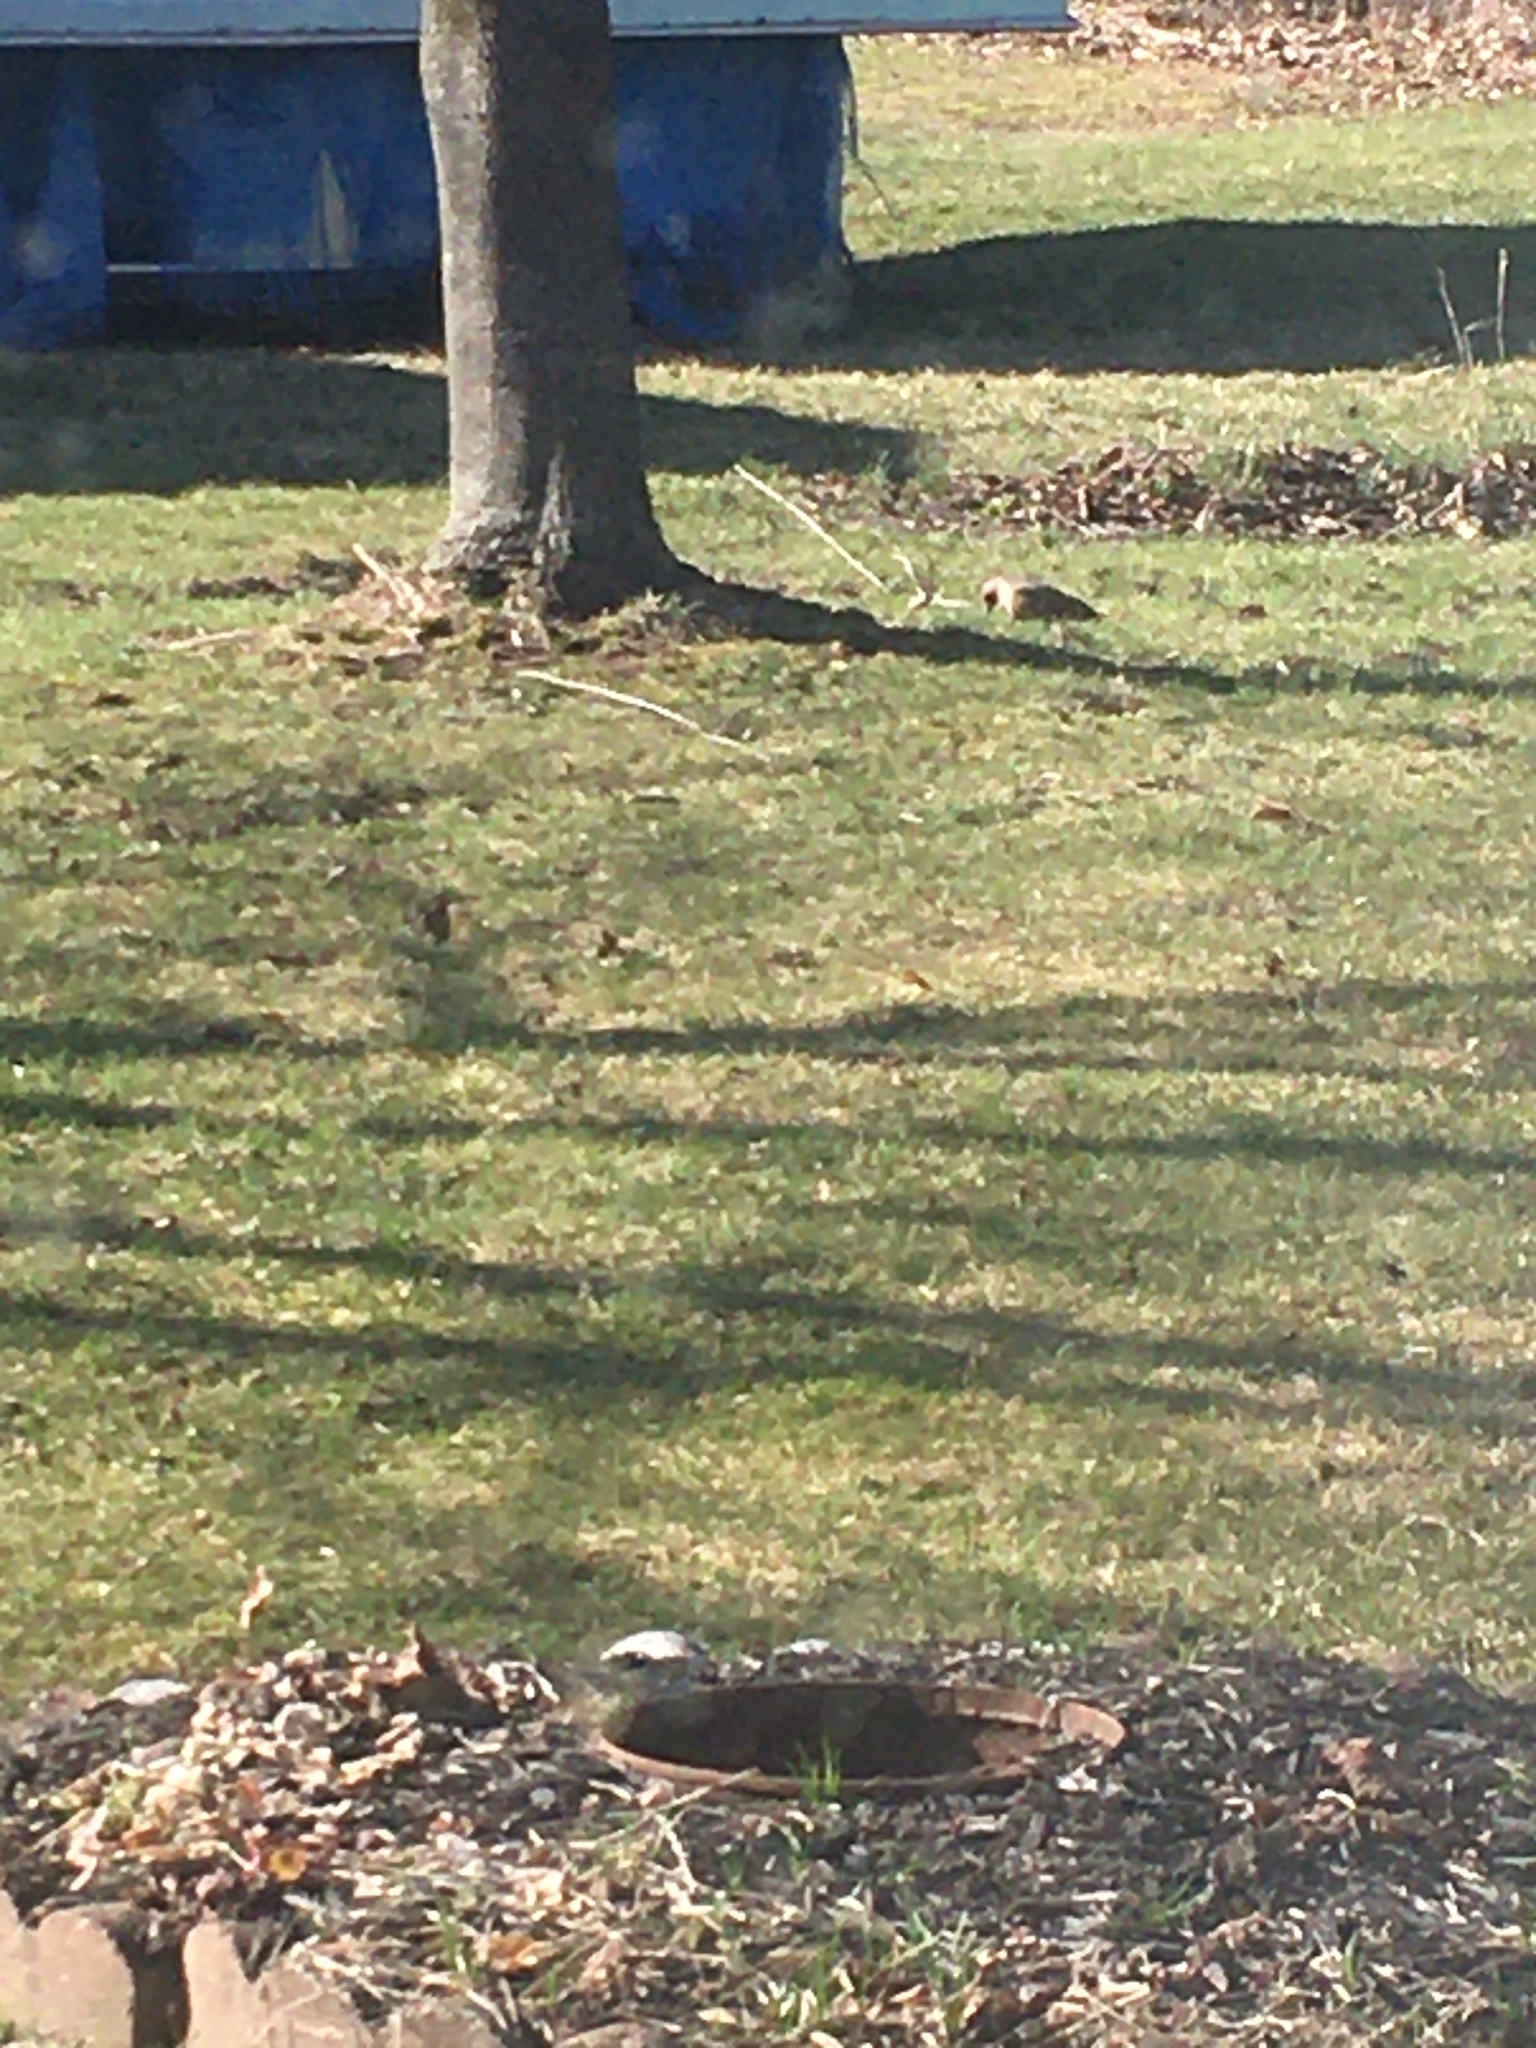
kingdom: Animalia
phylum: Chordata
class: Aves
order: Piciformes
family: Picidae
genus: Colaptes
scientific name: Colaptes auratus
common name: Northern flicker
